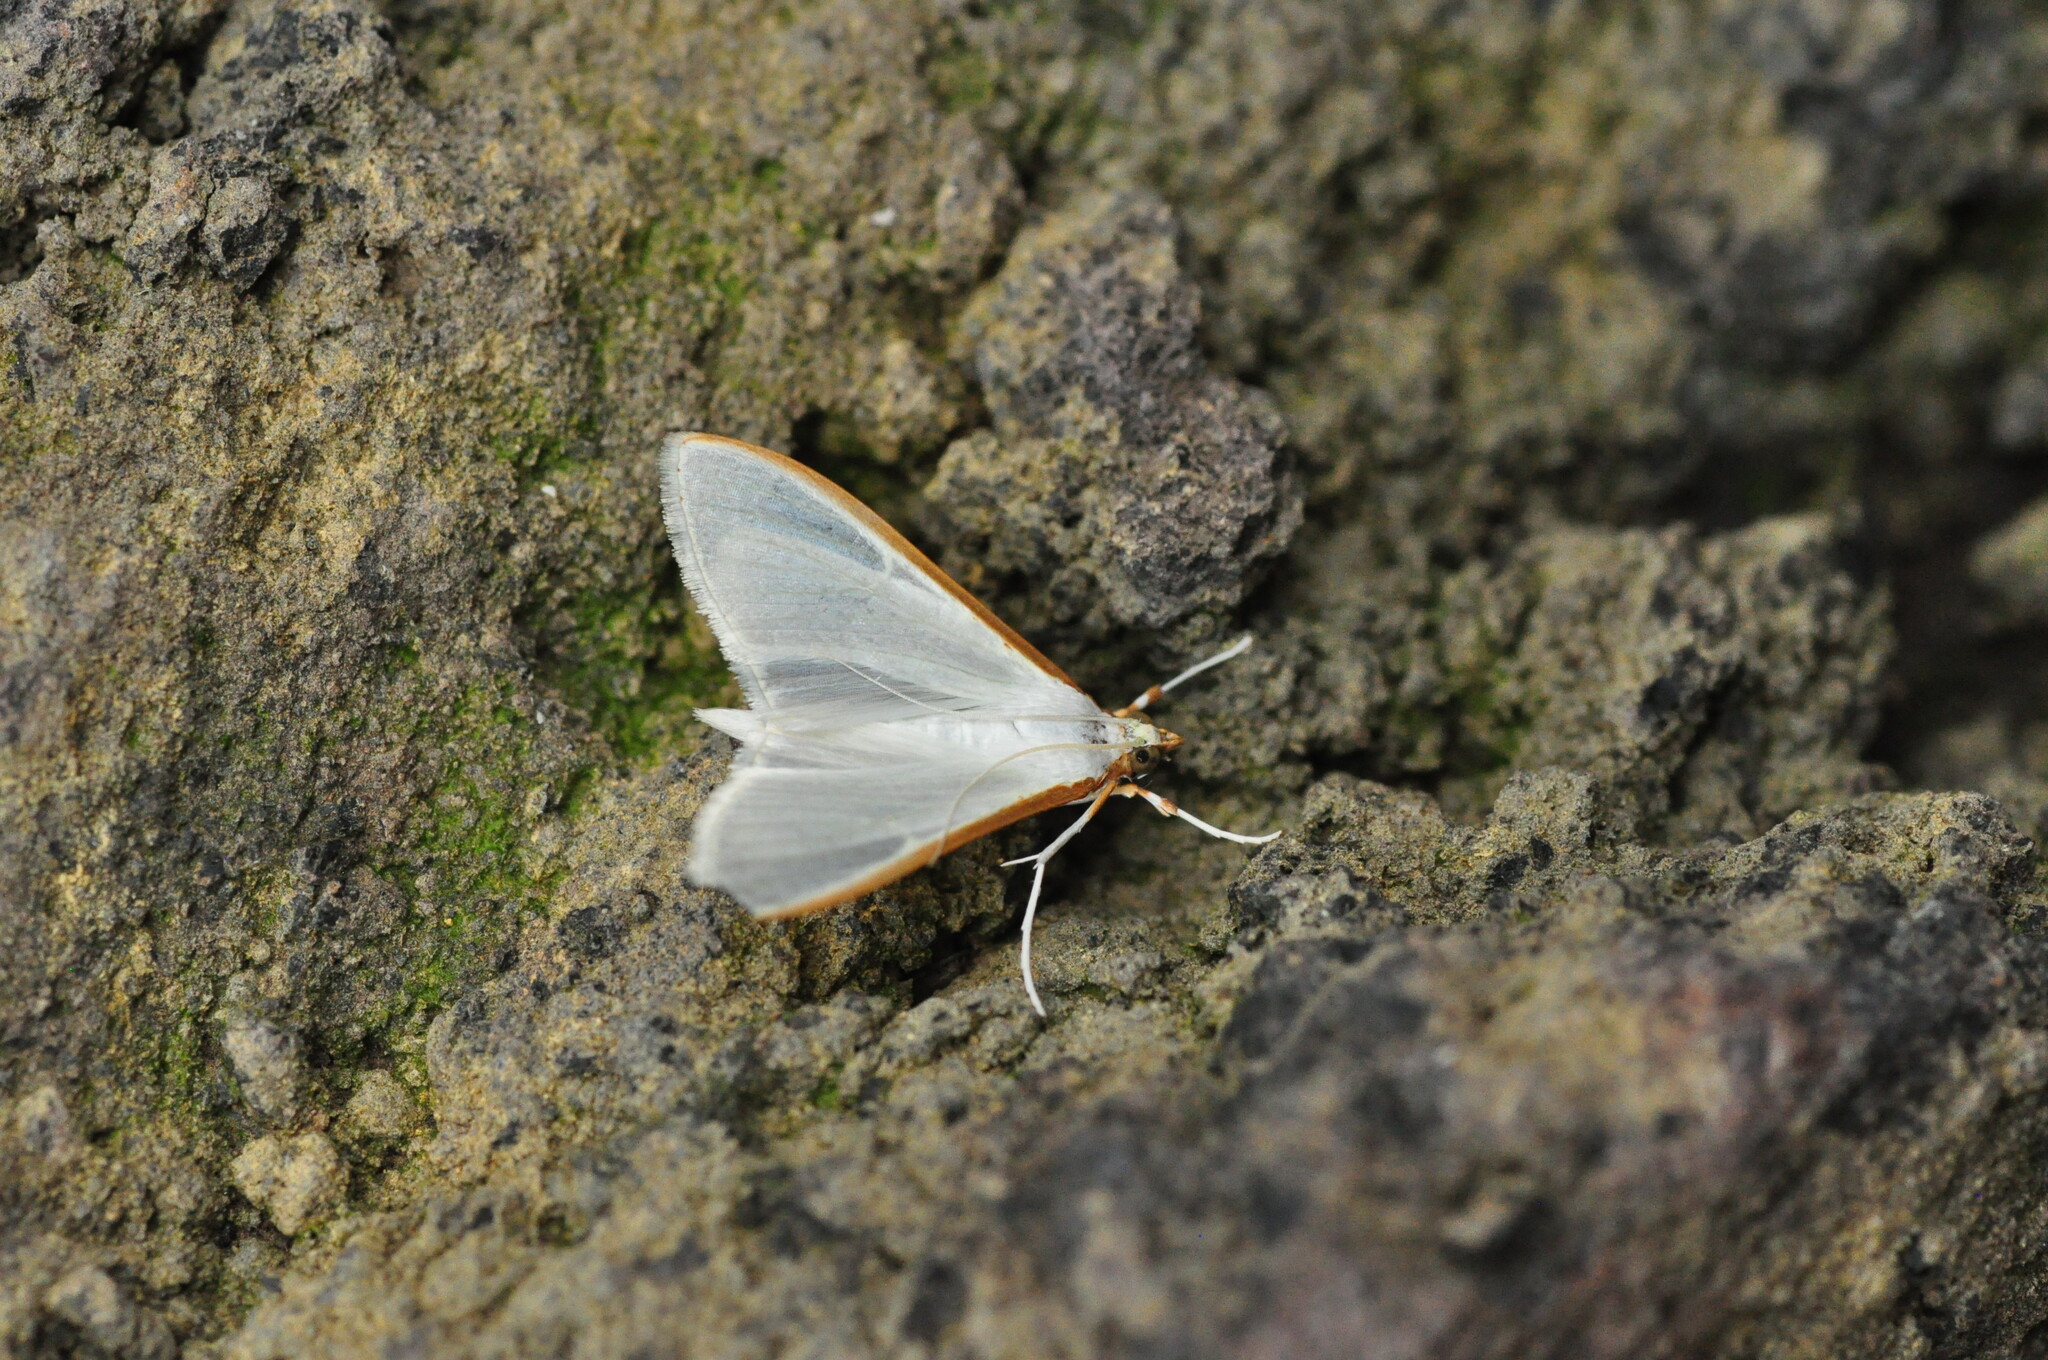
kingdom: Animalia
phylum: Arthropoda
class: Insecta
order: Lepidoptera
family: Crambidae
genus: Palpita
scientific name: Palpita vitrealis
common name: Olive-tree pearl
